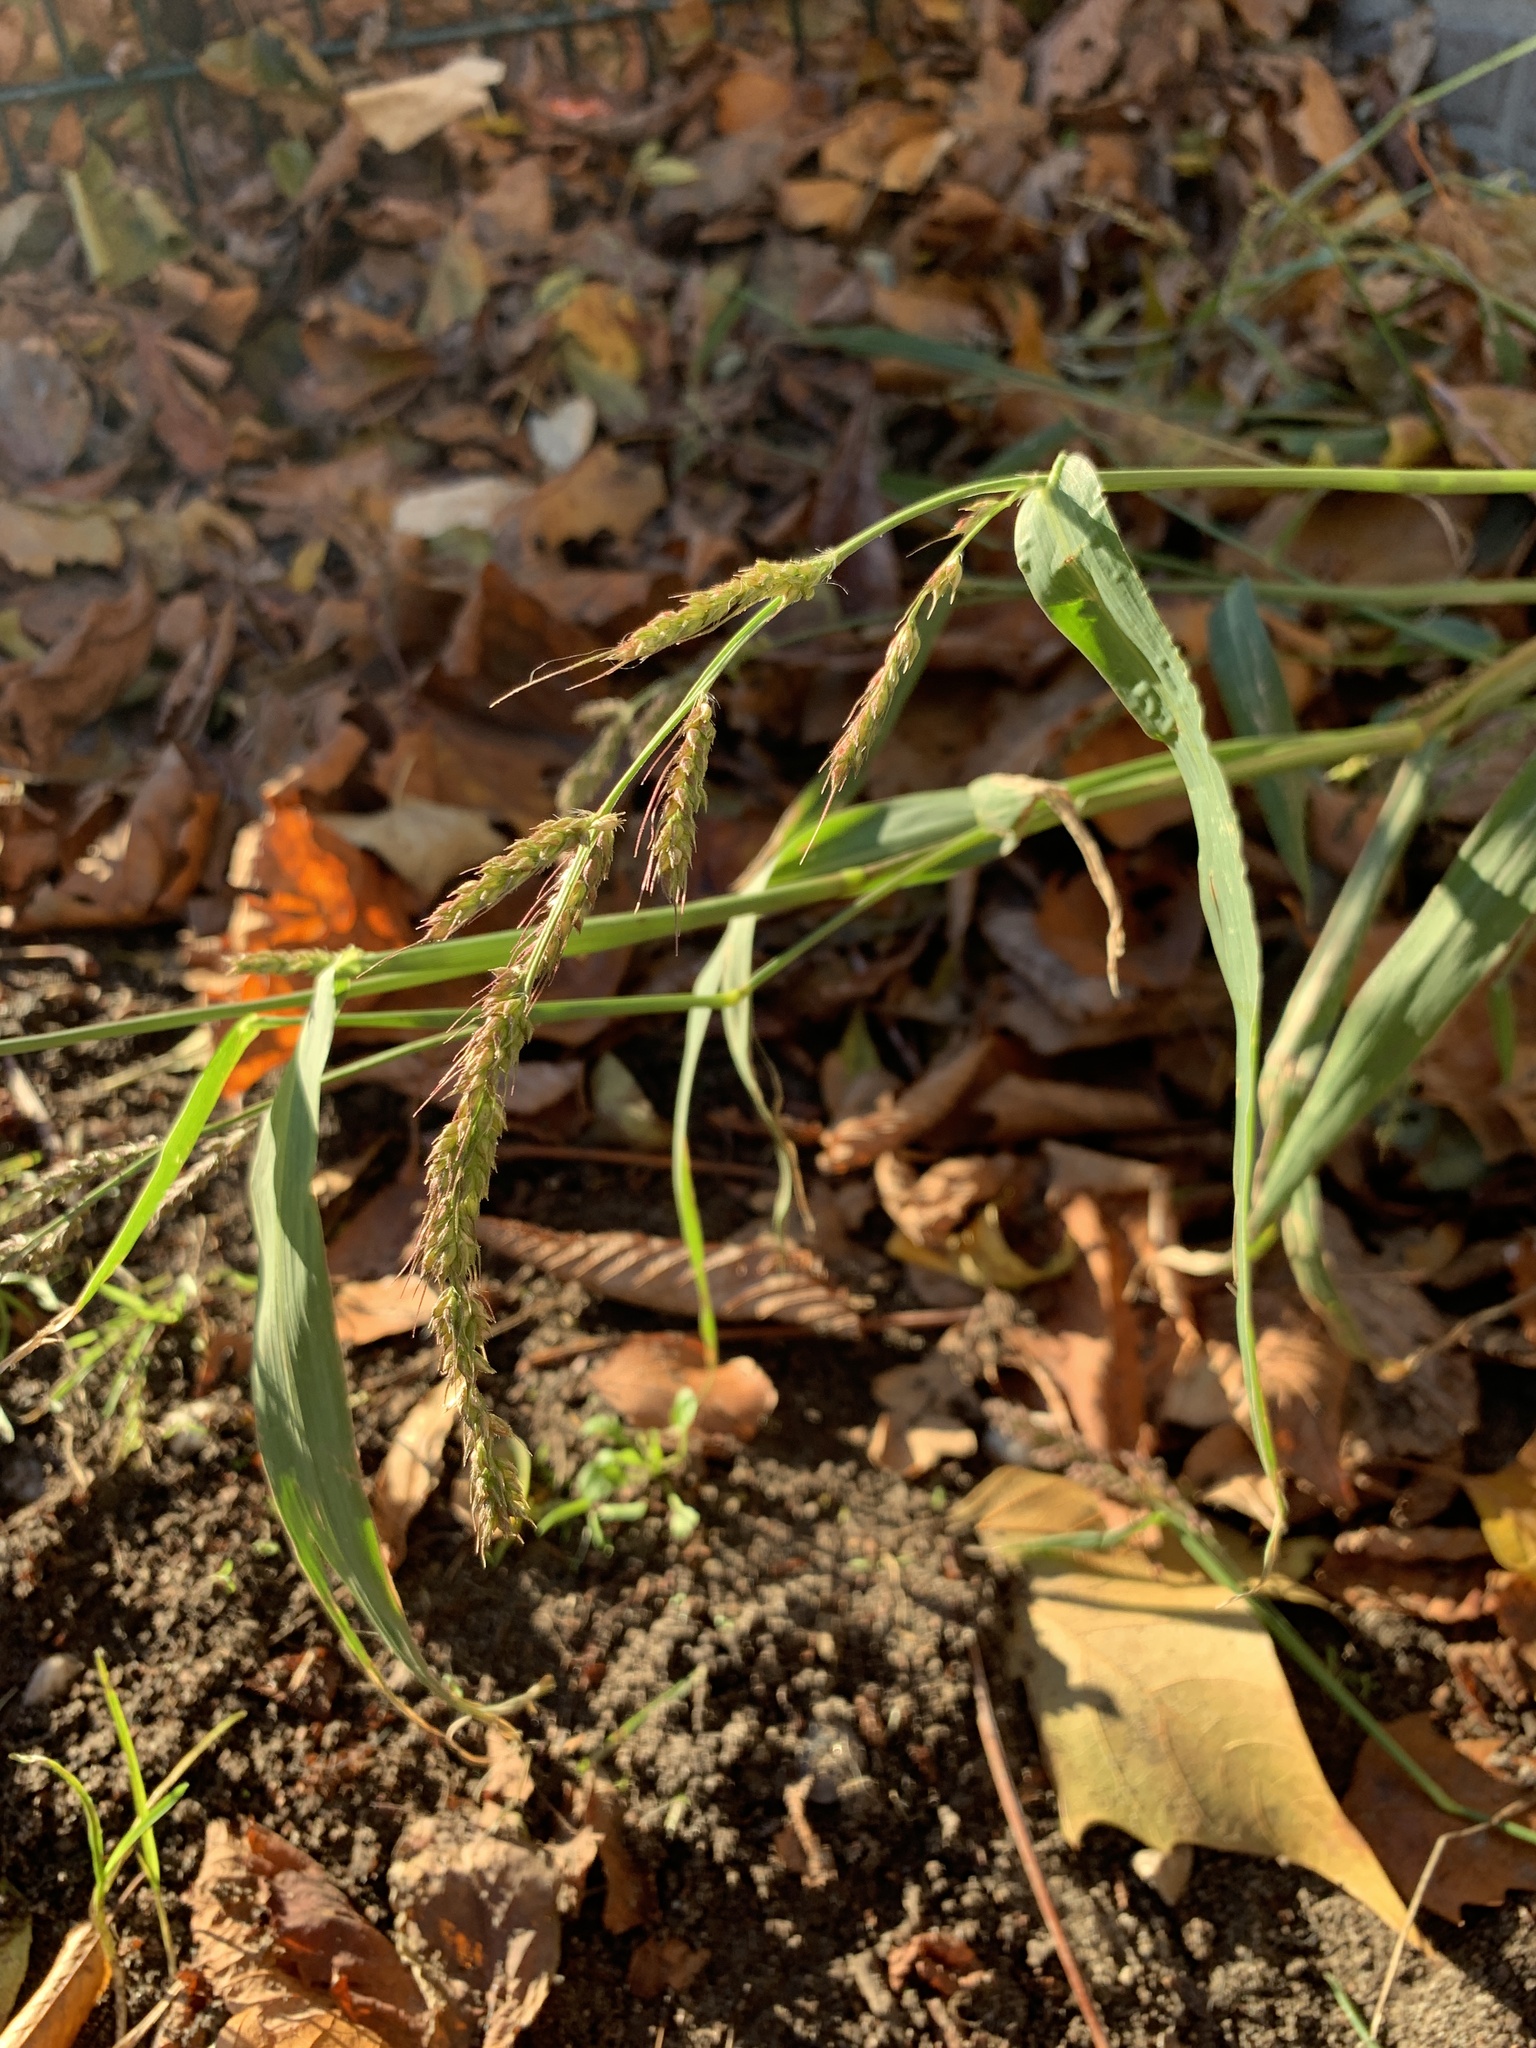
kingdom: Plantae
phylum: Tracheophyta
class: Liliopsida
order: Poales
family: Poaceae
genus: Echinochloa
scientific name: Echinochloa crus-galli
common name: Cockspur
